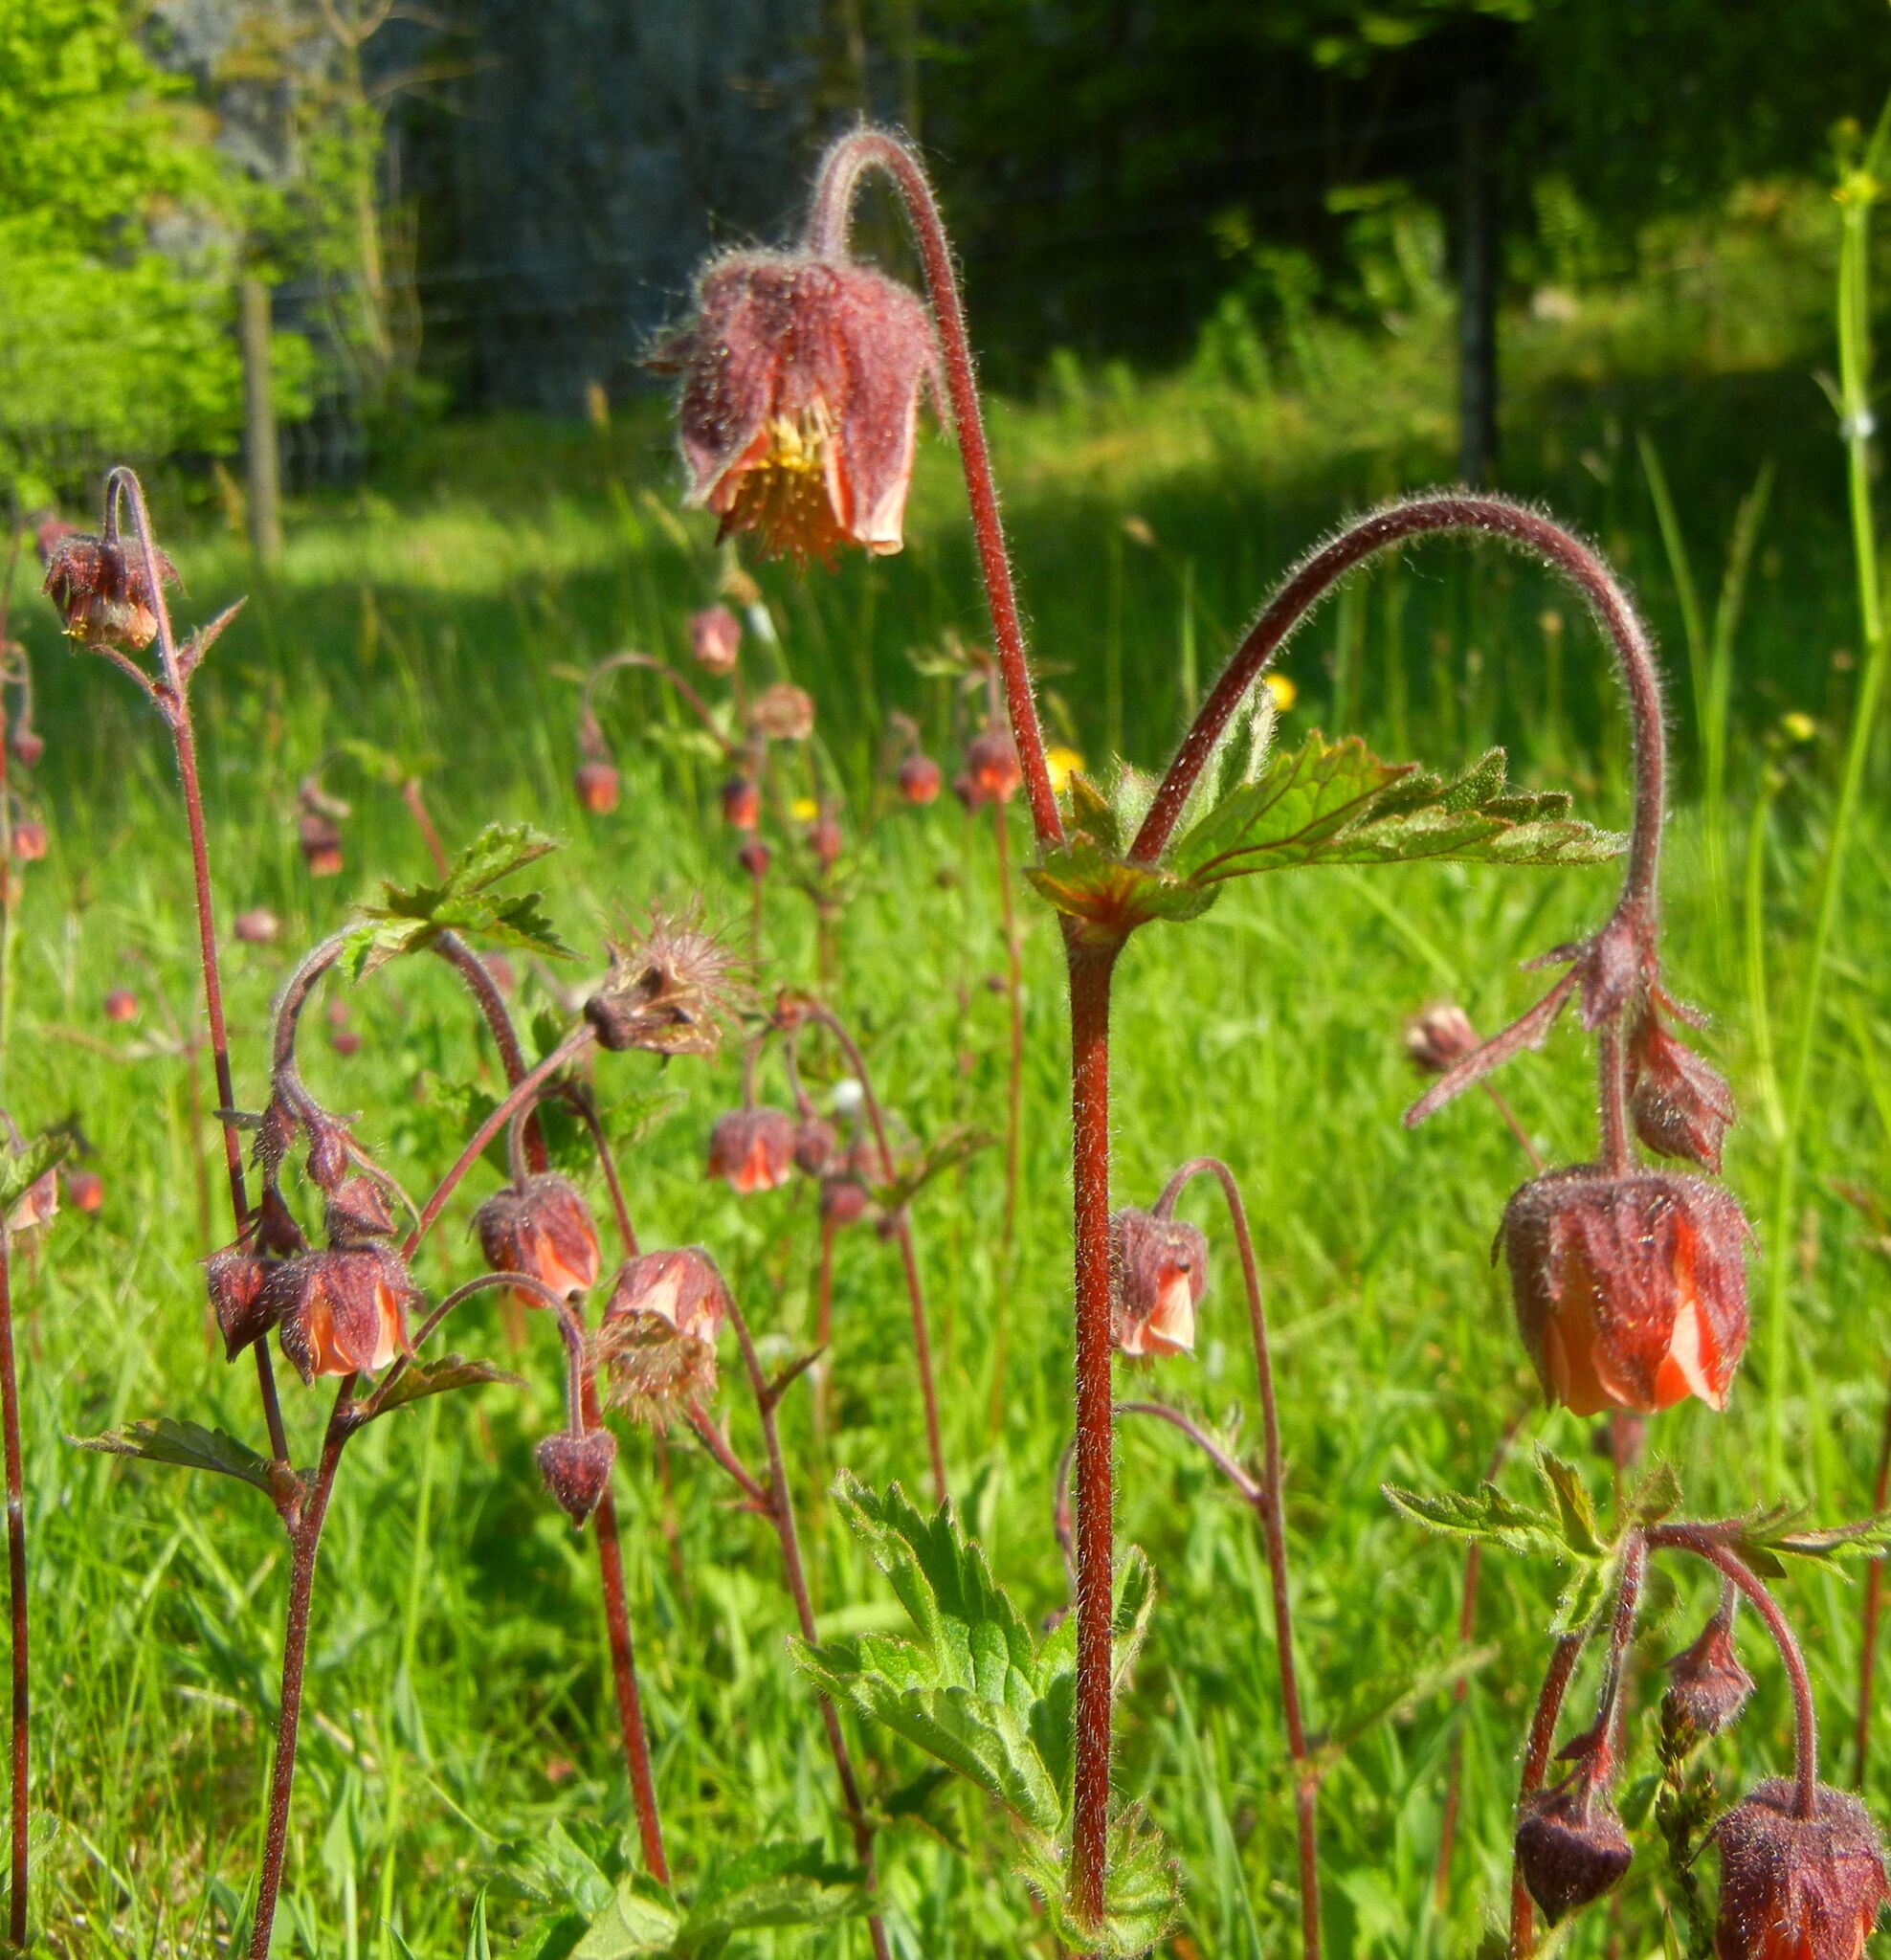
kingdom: Plantae
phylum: Tracheophyta
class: Magnoliopsida
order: Rosales
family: Rosaceae
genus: Geum
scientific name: Geum rivale
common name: Water avens
